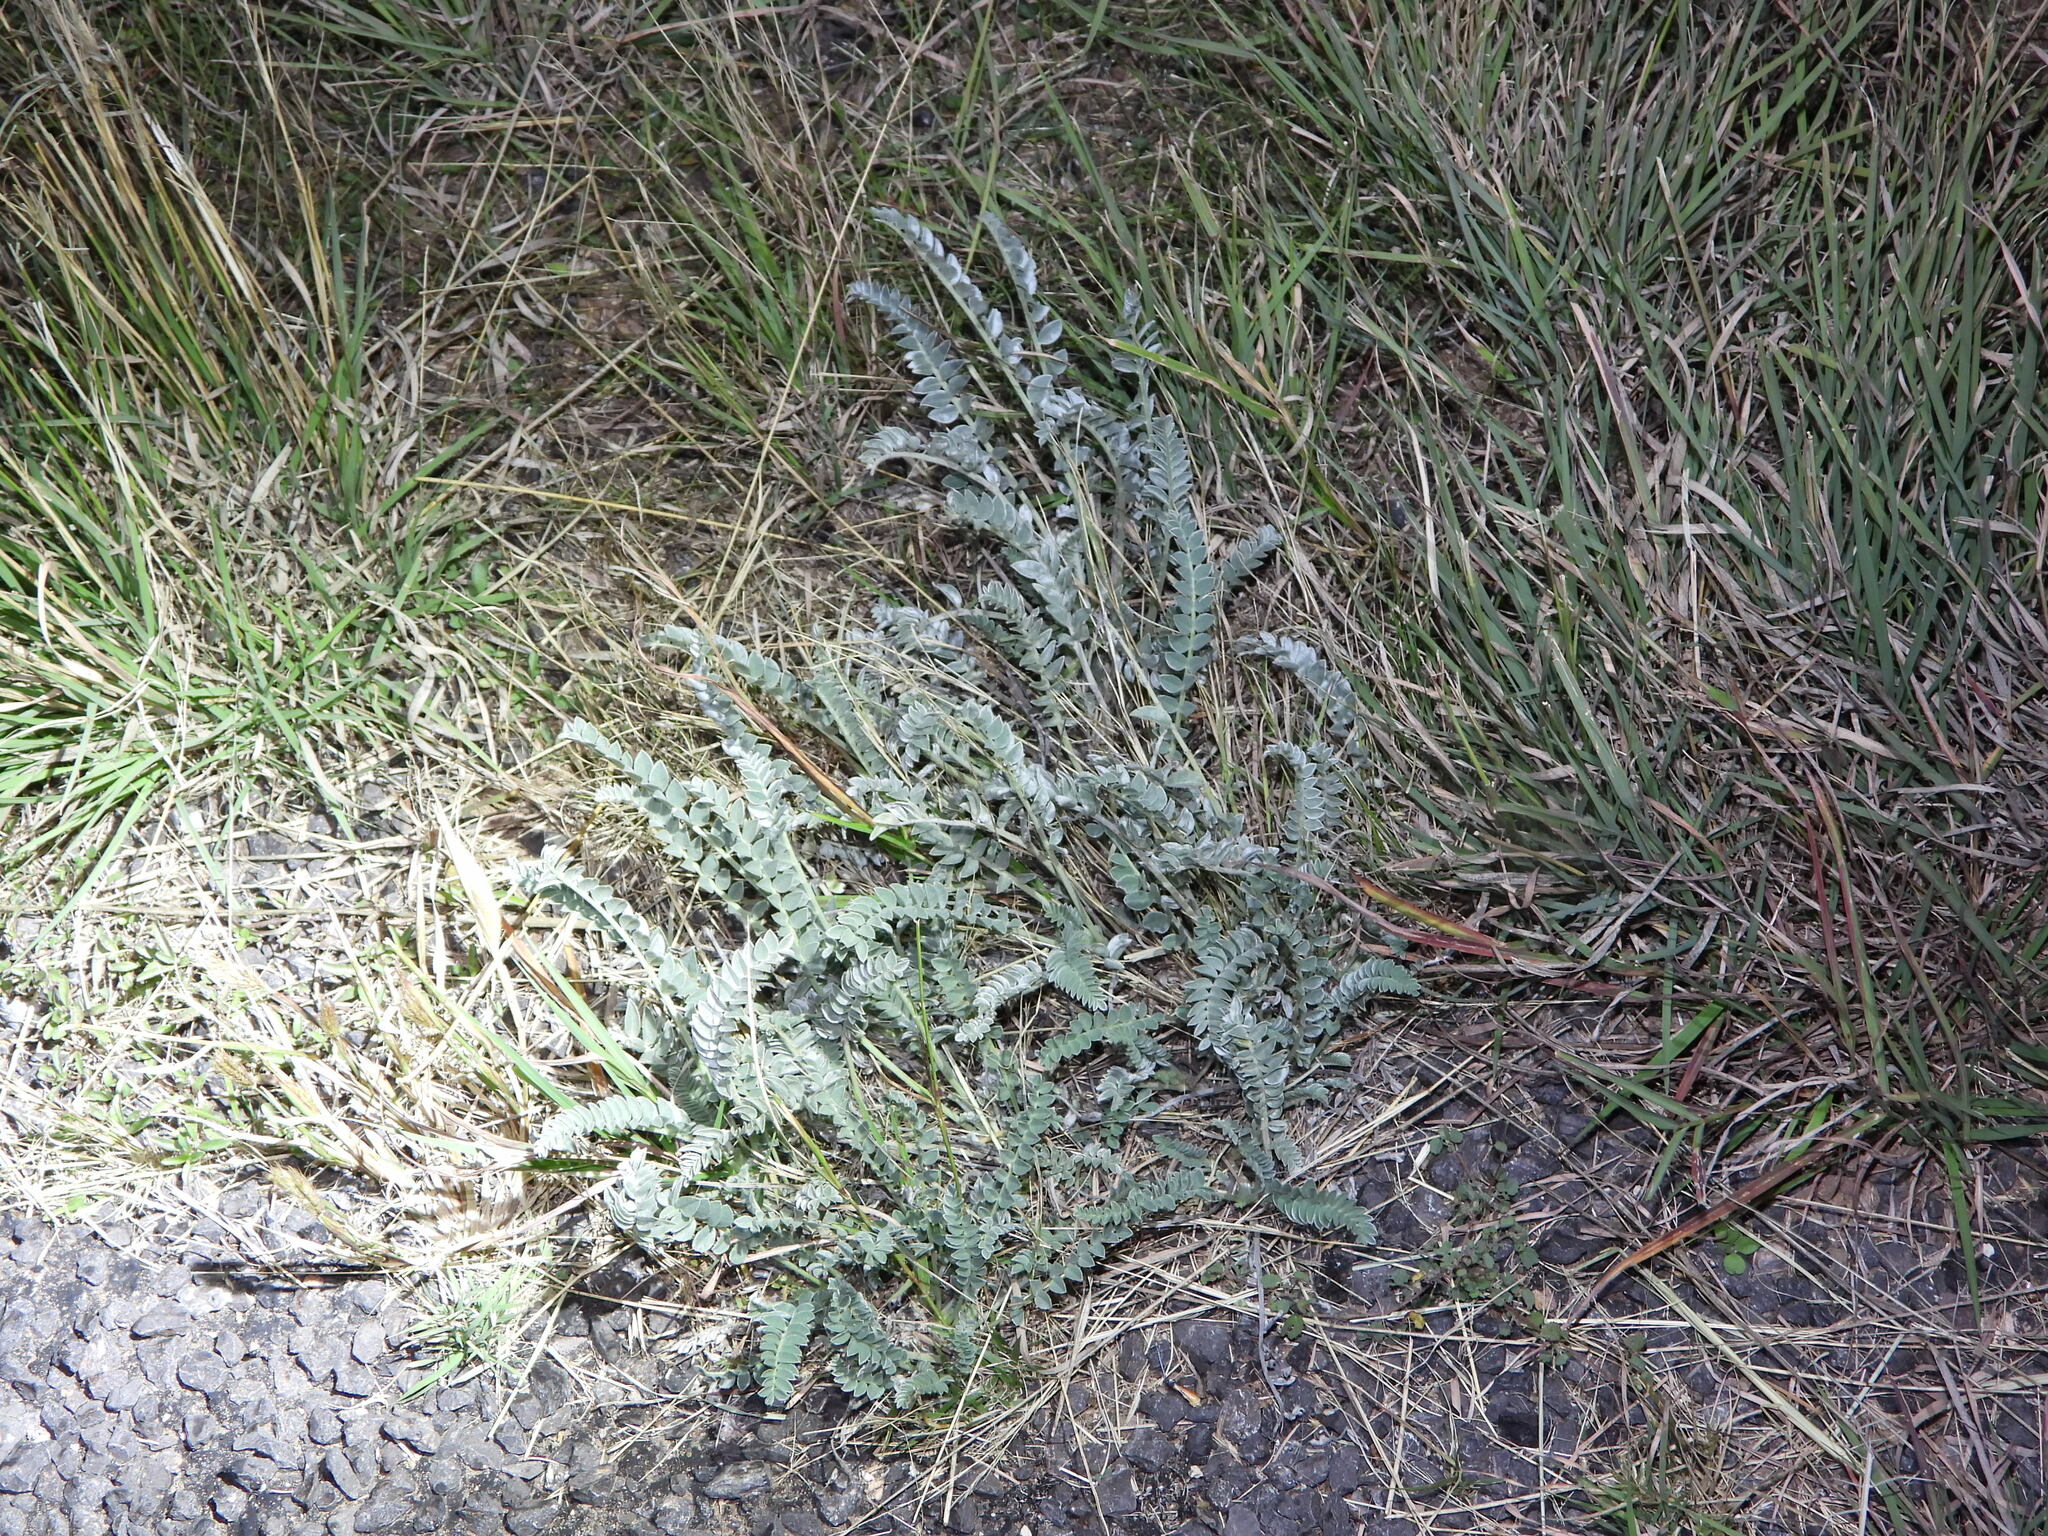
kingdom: Plantae
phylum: Tracheophyta
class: Magnoliopsida
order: Fabales
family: Fabaceae
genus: Astragalus
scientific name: Astragalus mollissimus
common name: Woolly locoweed
